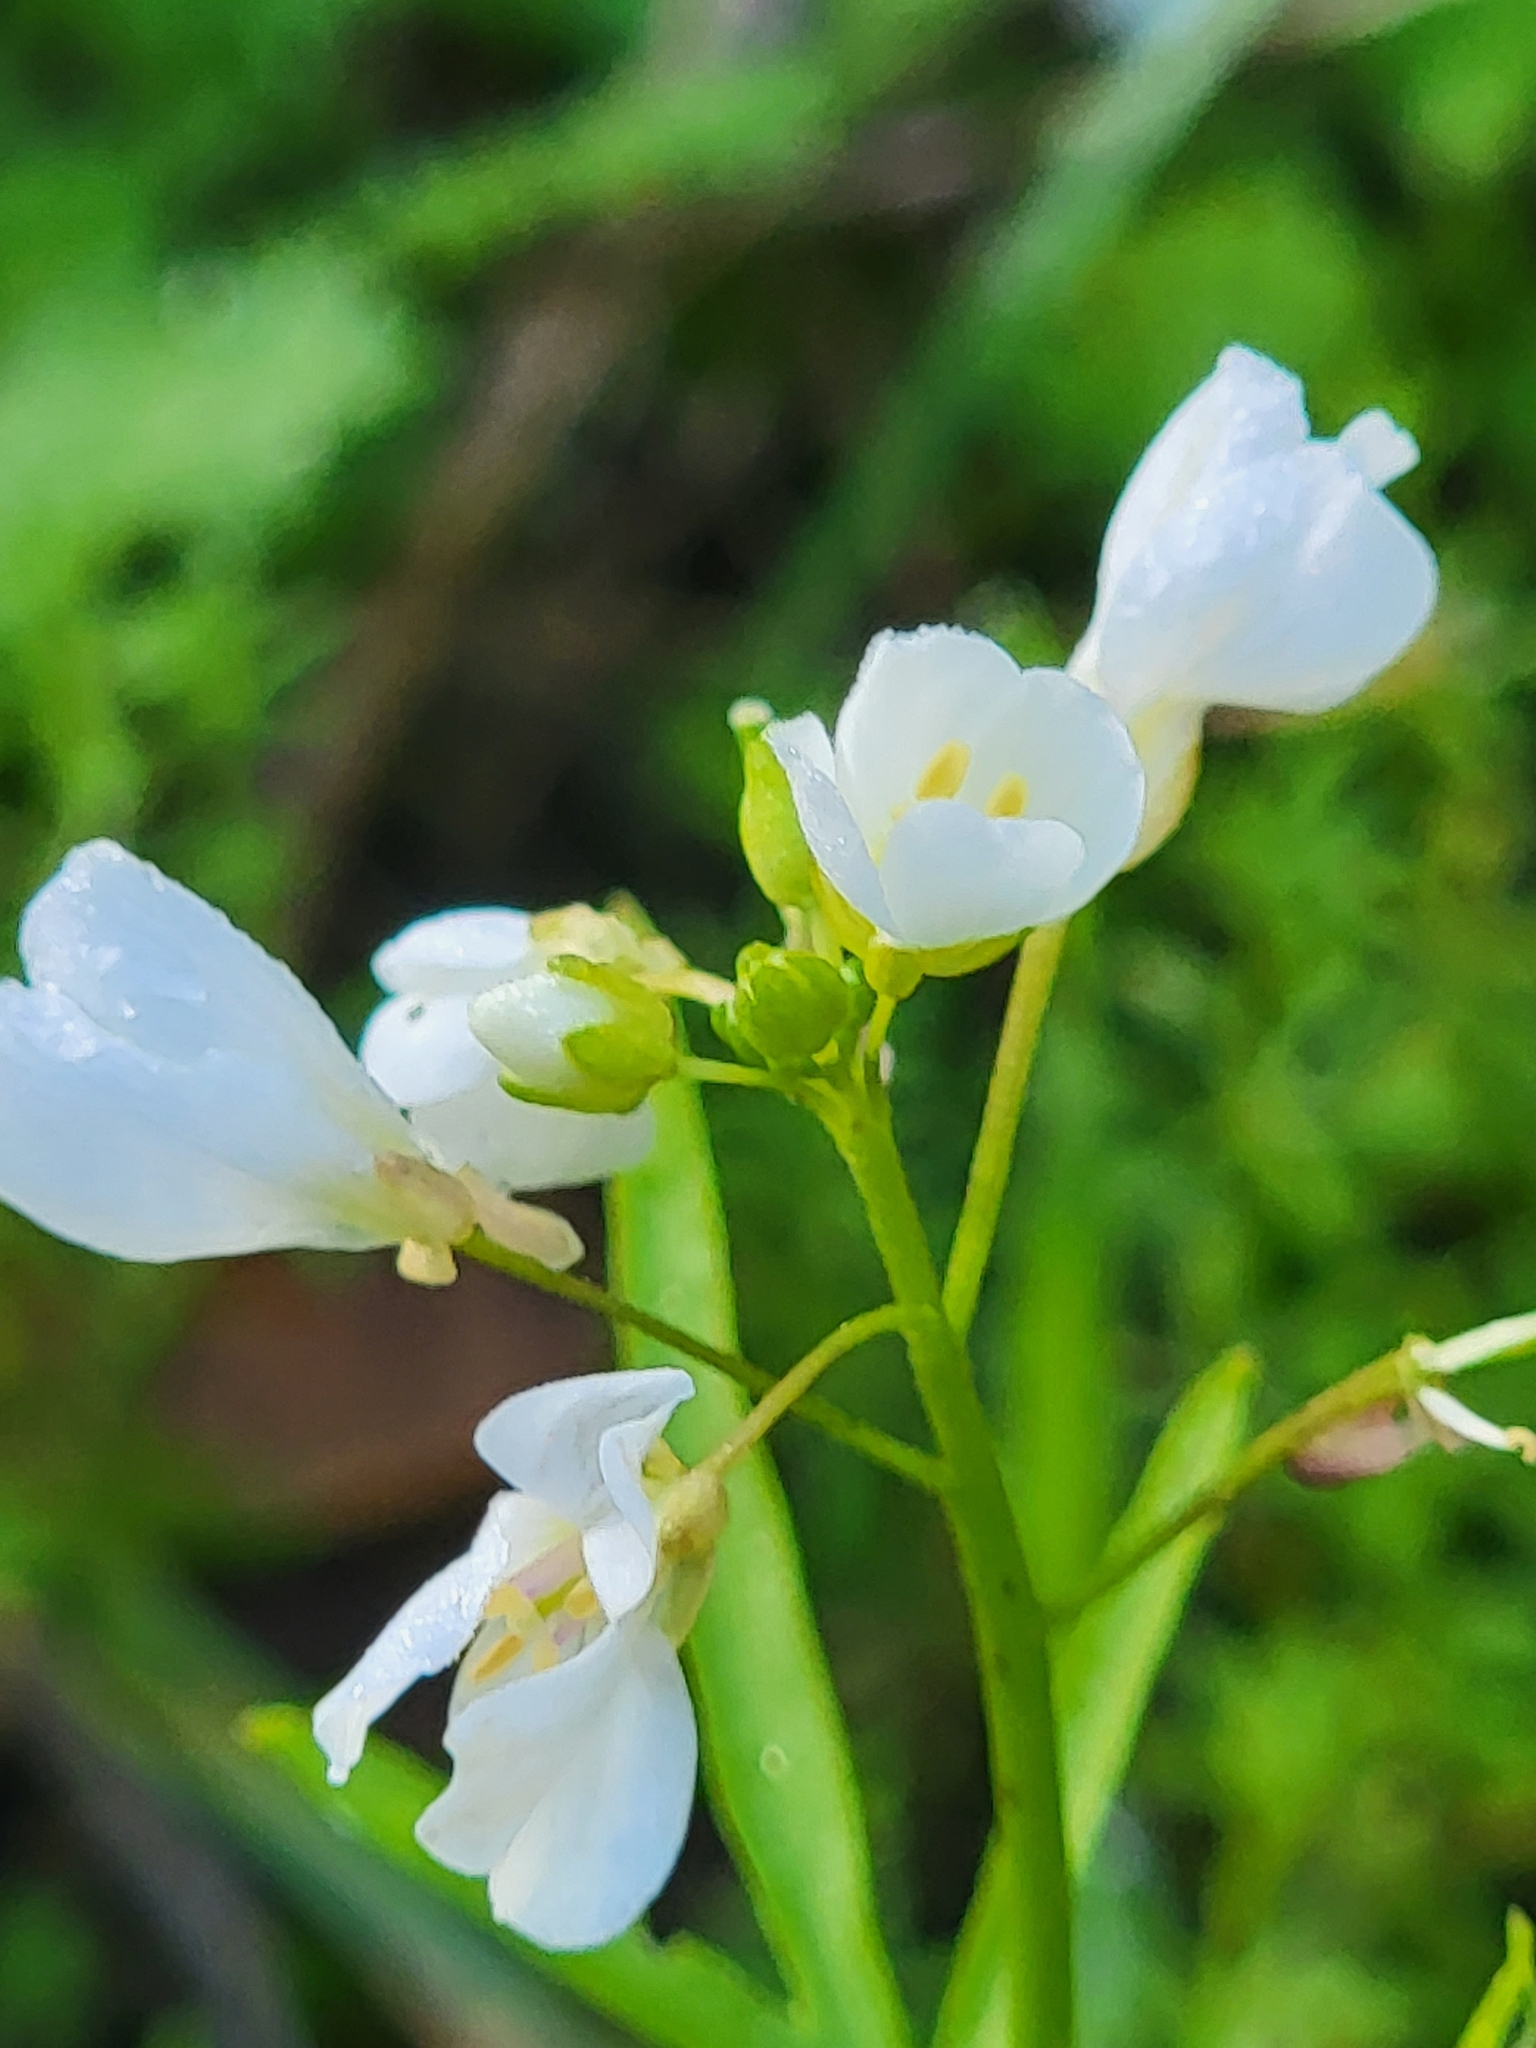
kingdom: Plantae
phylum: Tracheophyta
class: Magnoliopsida
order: Brassicales
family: Brassicaceae
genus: Cardamine
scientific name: Cardamine californica
